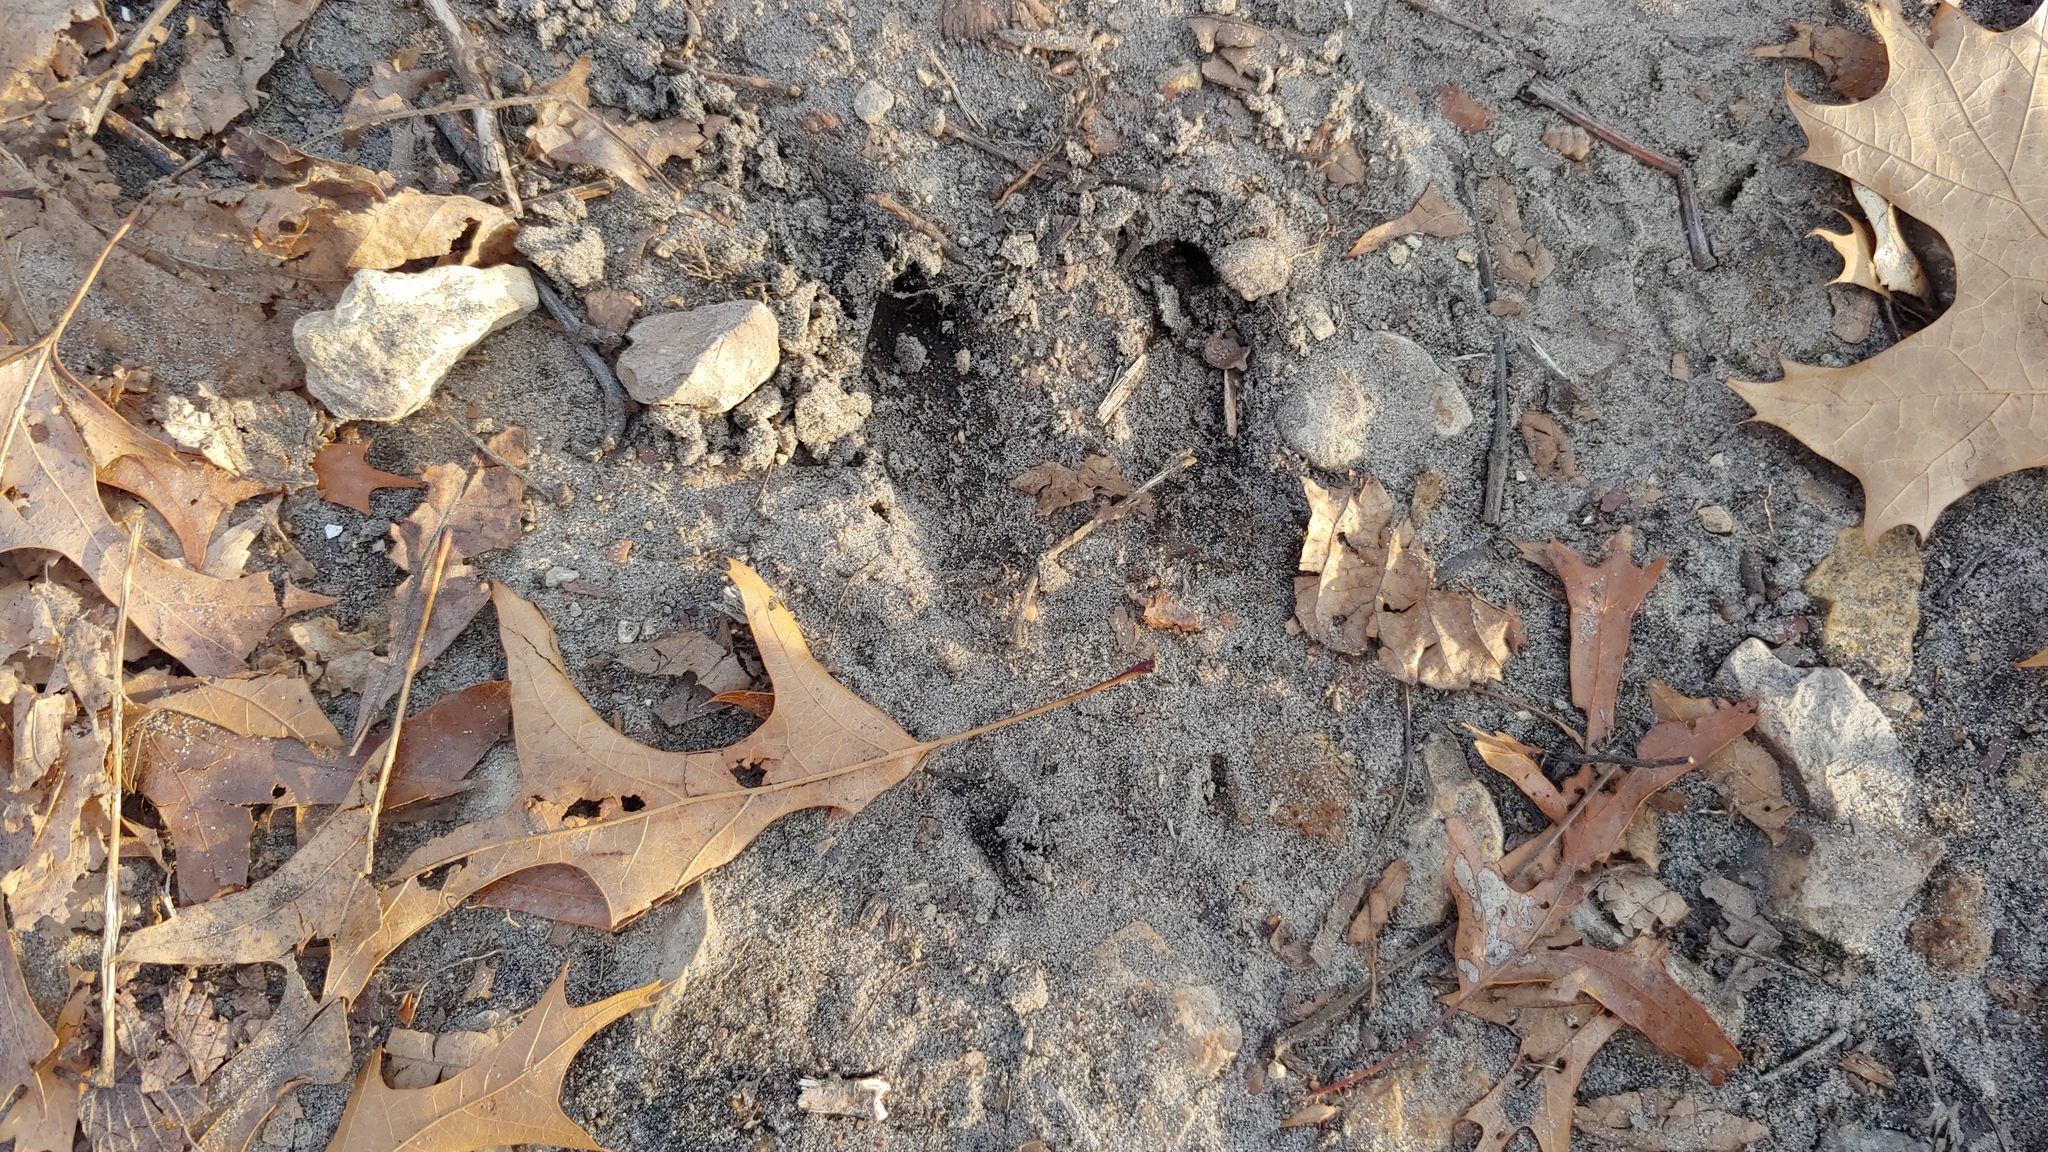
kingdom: Animalia
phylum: Chordata
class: Mammalia
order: Artiodactyla
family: Cervidae
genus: Odocoileus
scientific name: Odocoileus virginianus
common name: White-tailed deer
